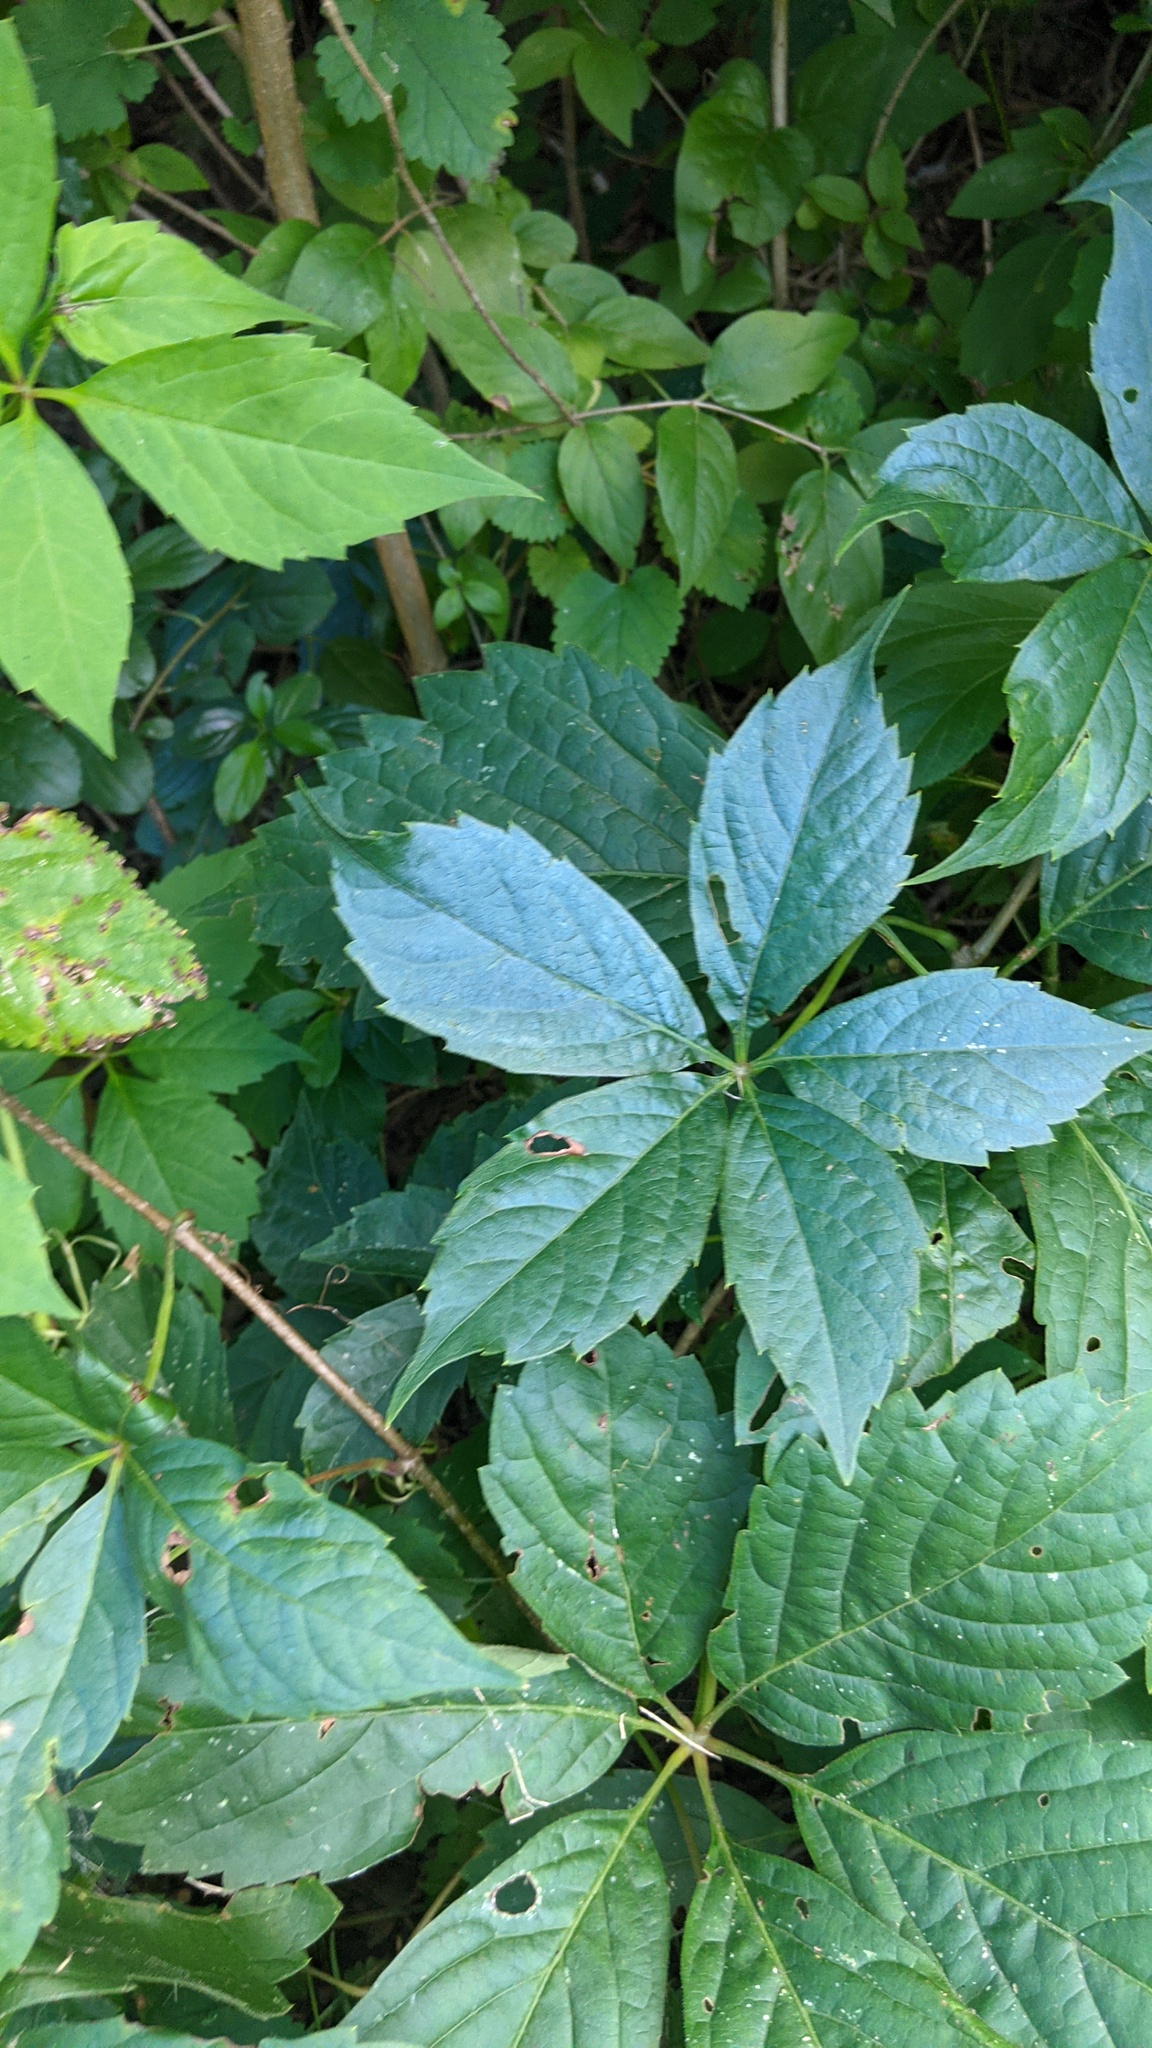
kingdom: Plantae
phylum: Tracheophyta
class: Magnoliopsida
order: Vitales
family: Vitaceae
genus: Parthenocissus
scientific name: Parthenocissus inserta
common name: False virginia-creeper
